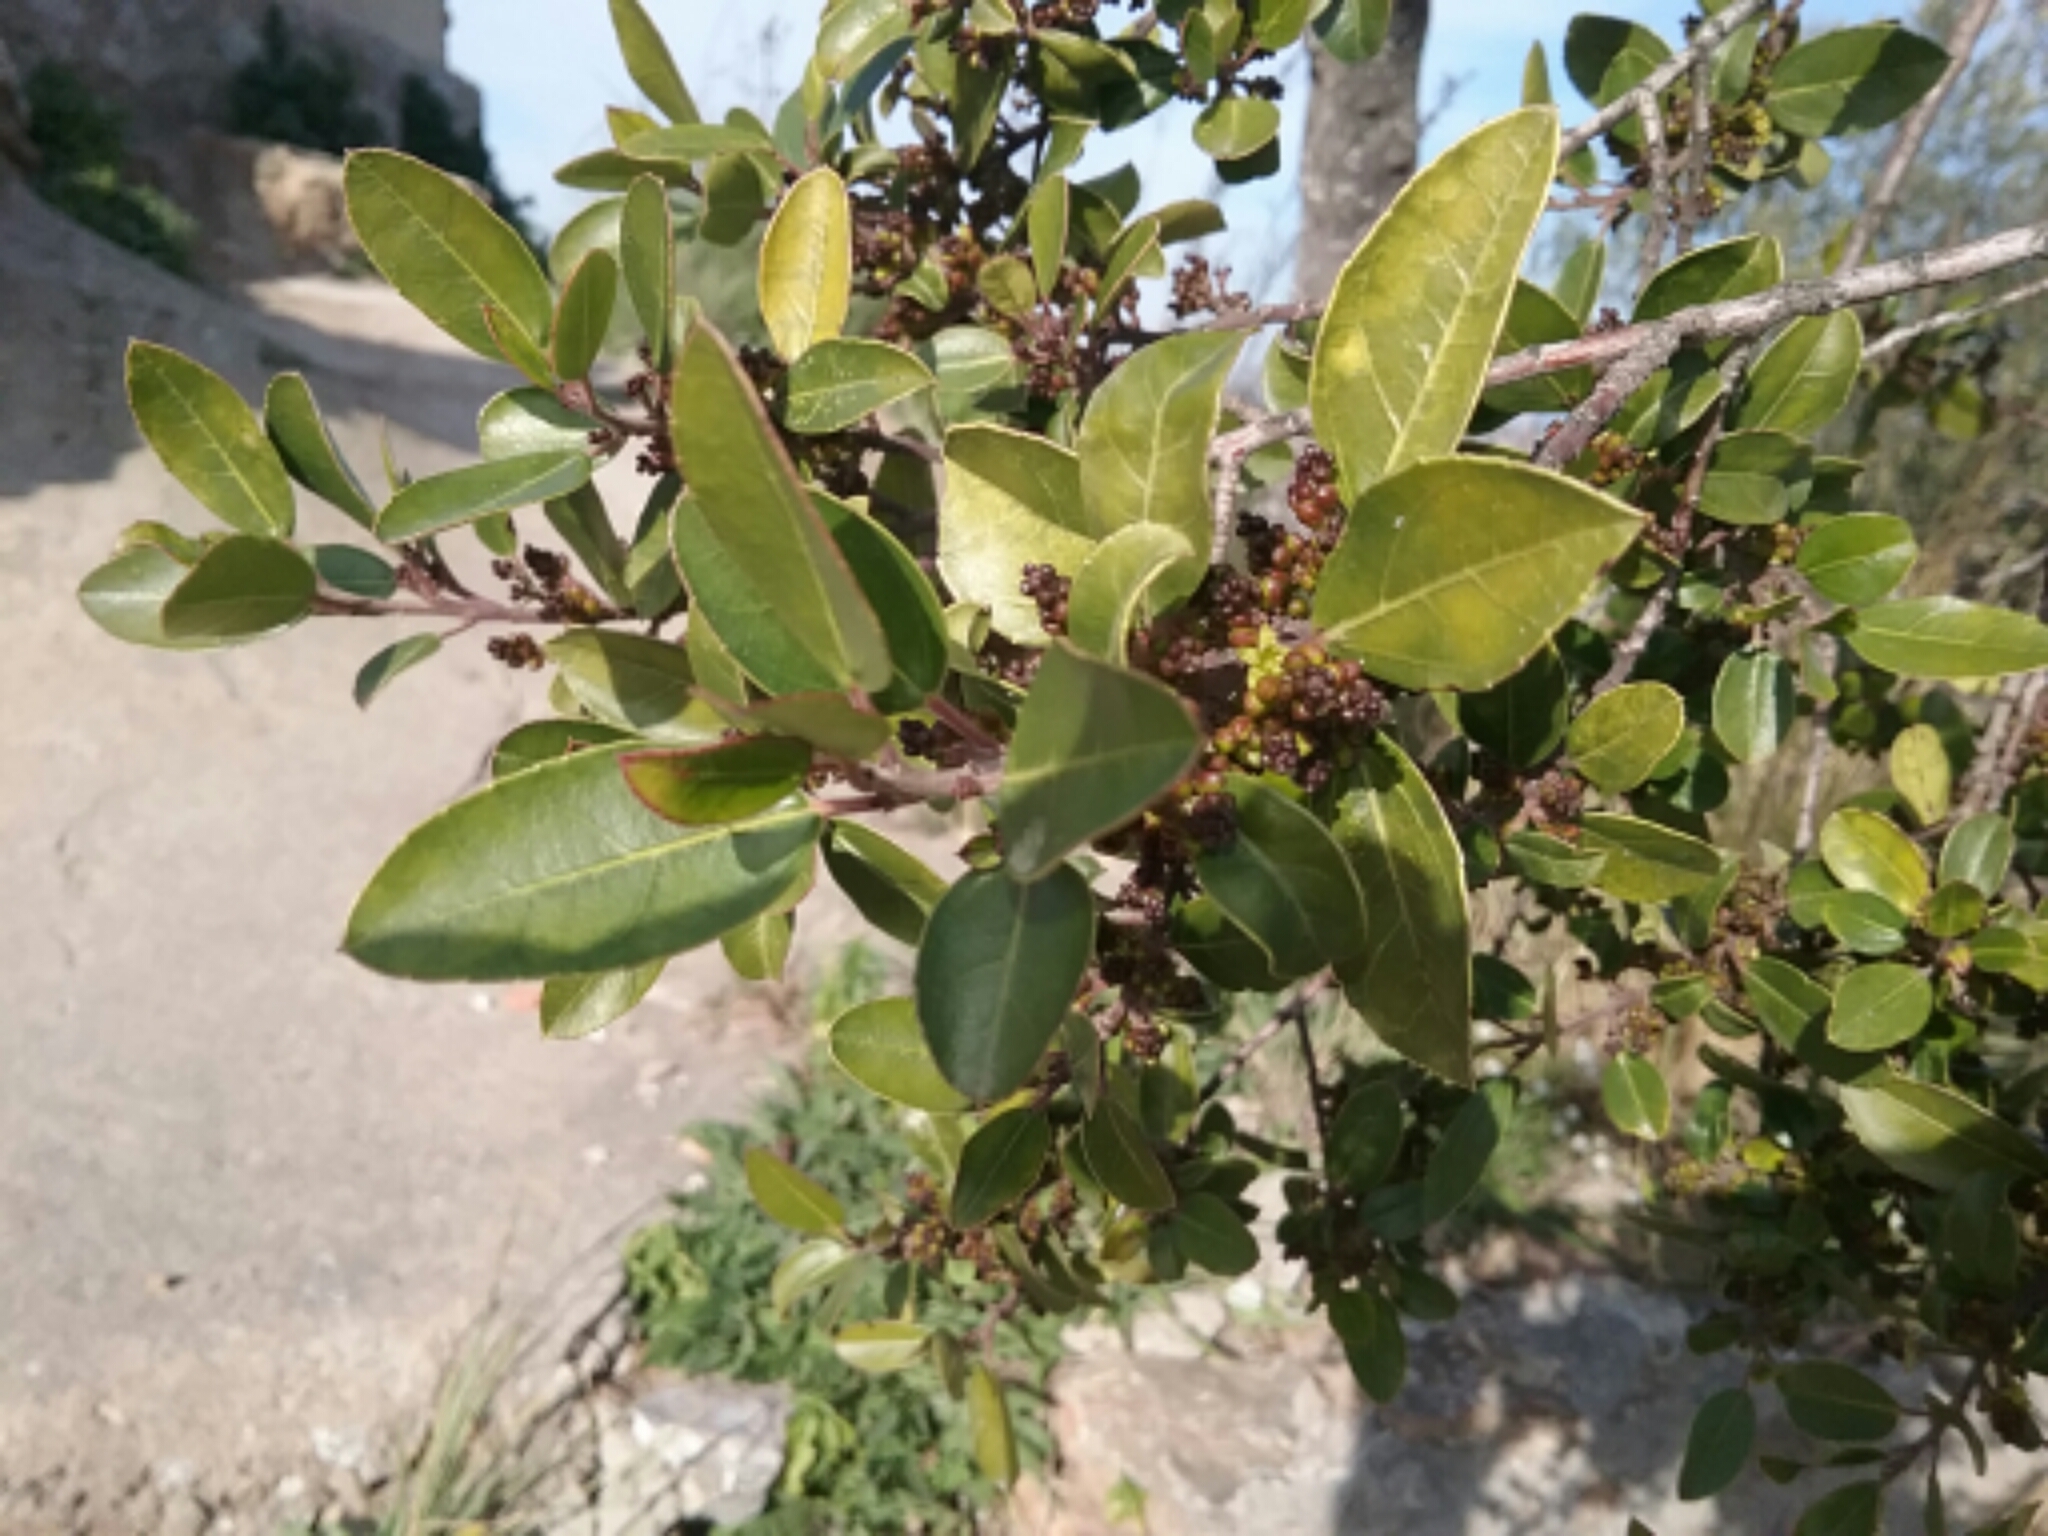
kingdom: Plantae
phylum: Tracheophyta
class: Magnoliopsida
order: Rosales
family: Rhamnaceae
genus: Rhamnus
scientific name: Rhamnus alaternus
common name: Mediterranean buckthorn
